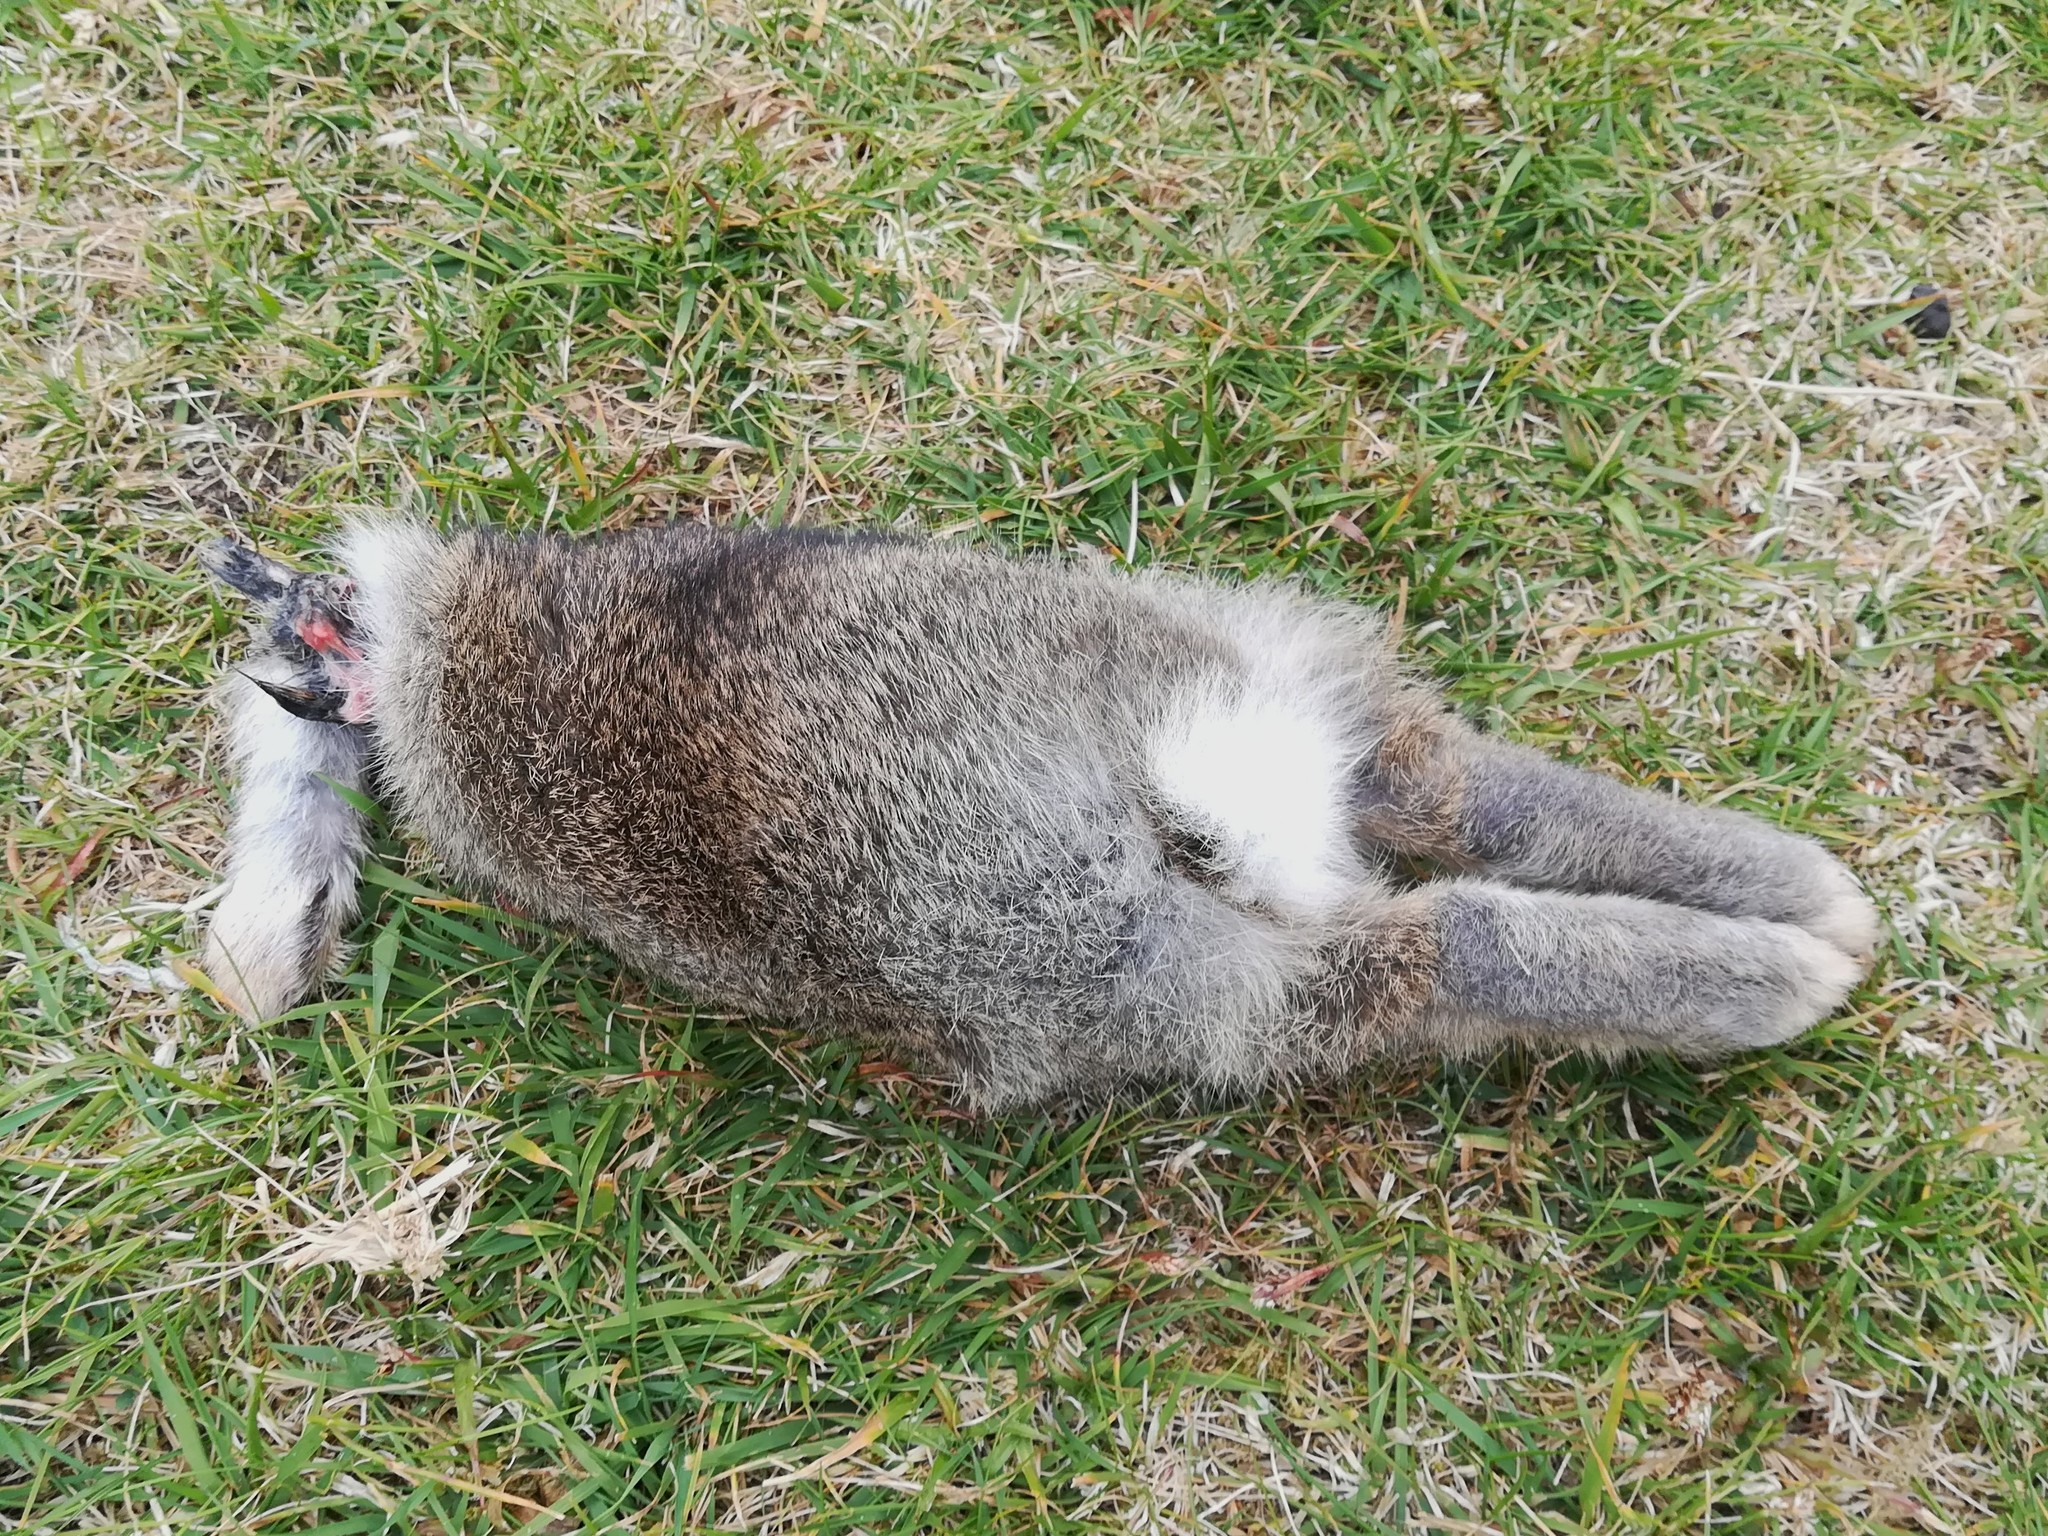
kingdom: Animalia
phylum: Chordata
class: Mammalia
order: Lagomorpha
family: Leporidae
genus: Oryctolagus
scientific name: Oryctolagus cuniculus
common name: European rabbit
